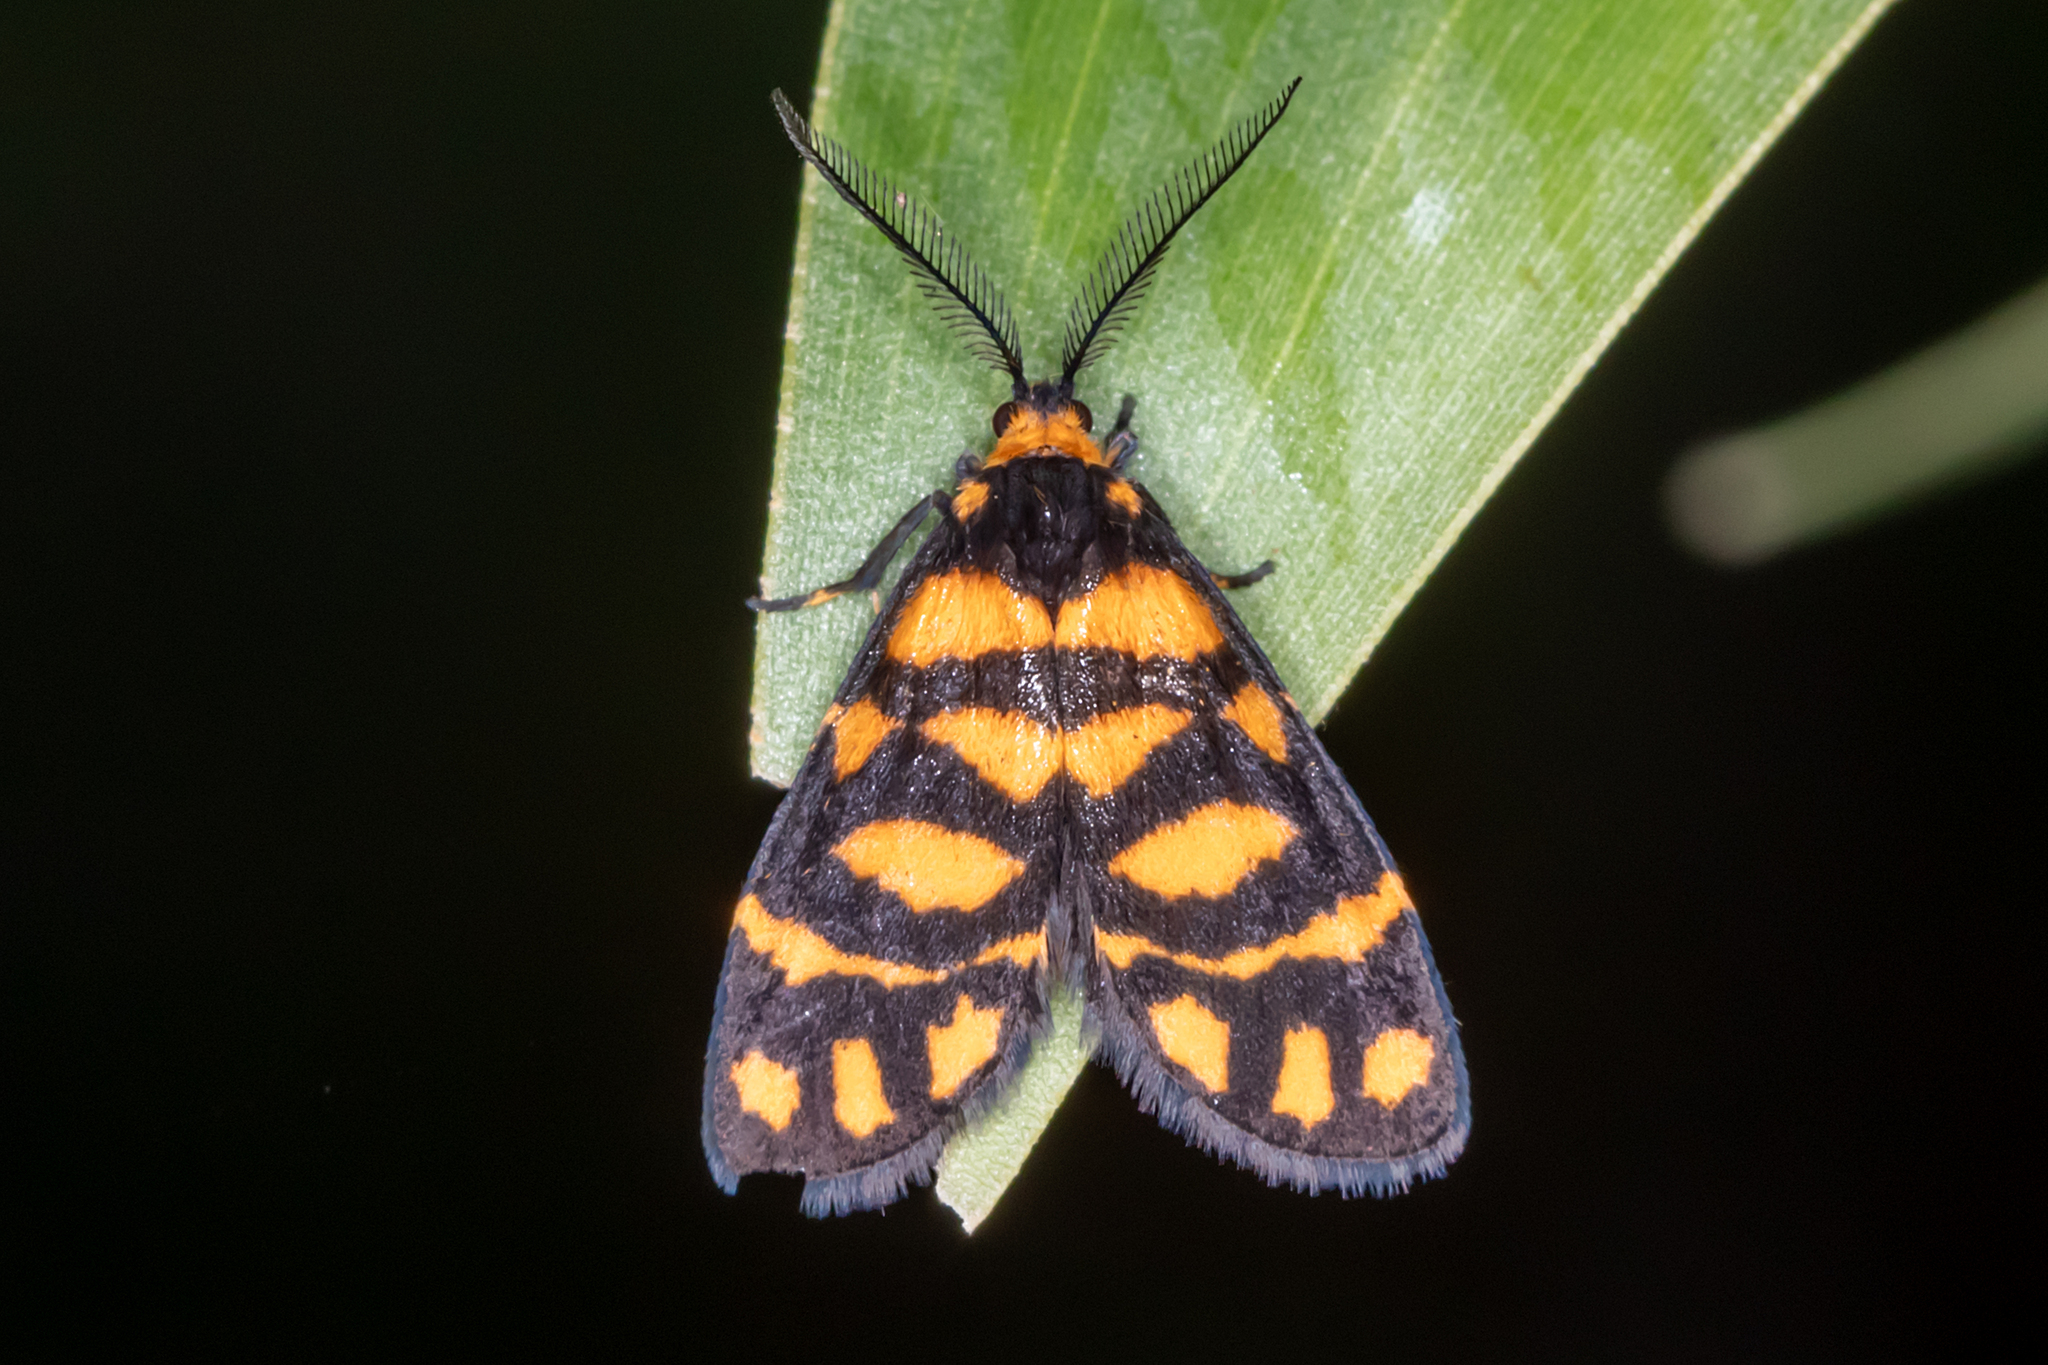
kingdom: Animalia
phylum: Arthropoda
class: Insecta
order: Lepidoptera
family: Erebidae
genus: Asura
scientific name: Asura lydia
